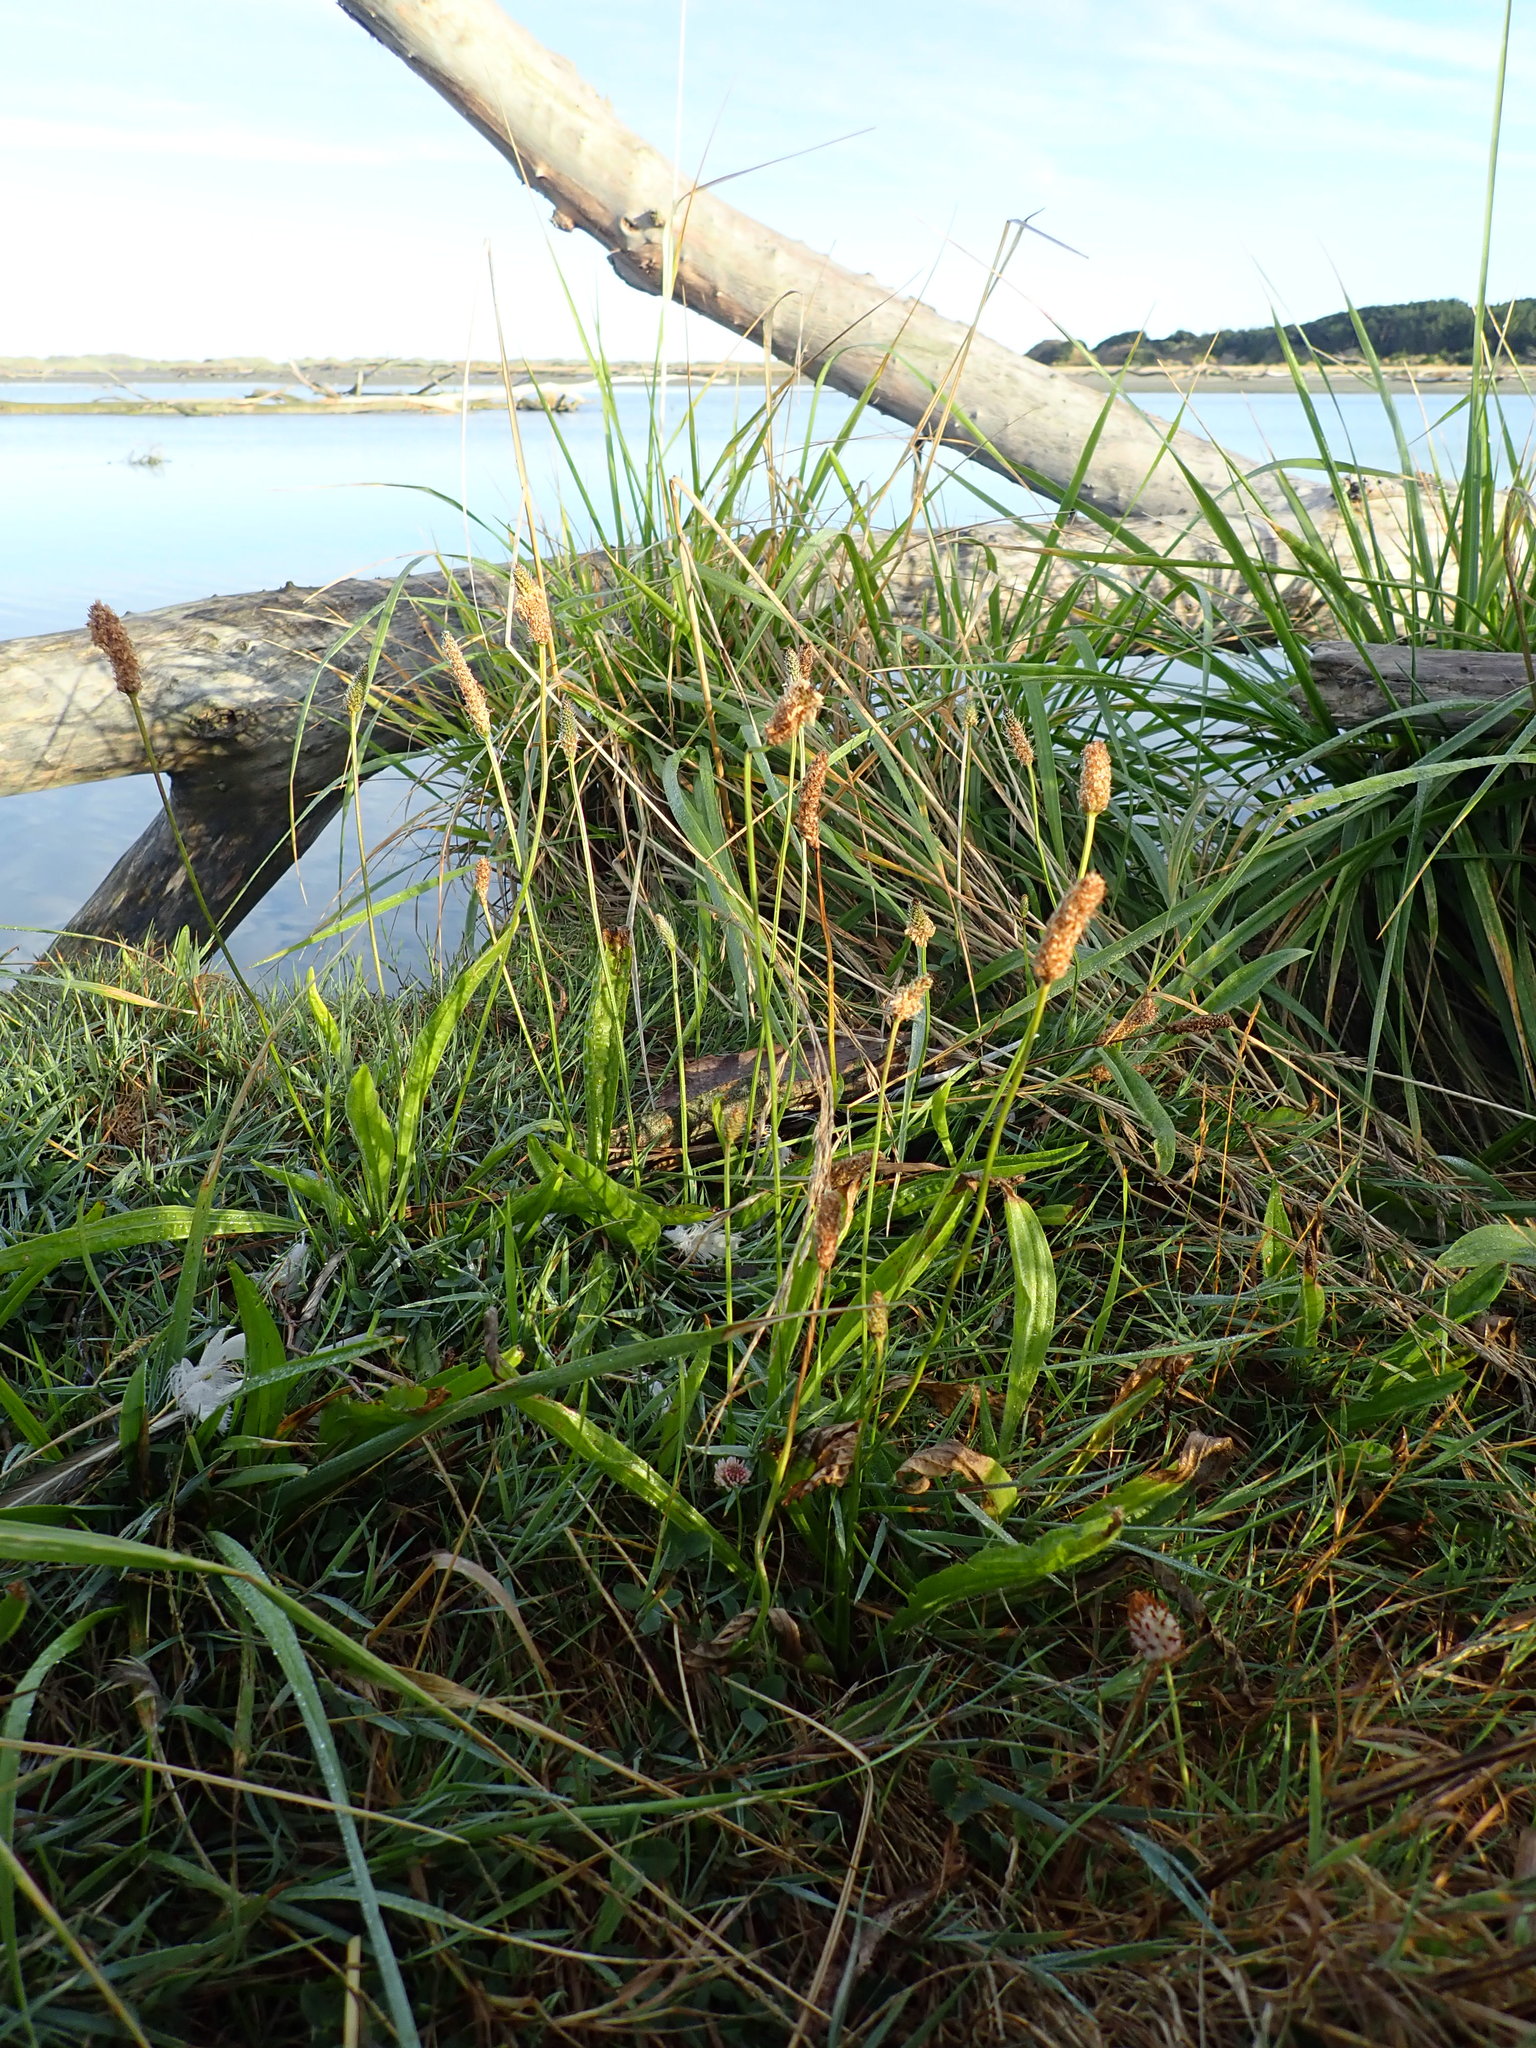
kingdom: Plantae
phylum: Tracheophyta
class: Magnoliopsida
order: Lamiales
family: Plantaginaceae
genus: Plantago
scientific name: Plantago lanceolata
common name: Ribwort plantain
